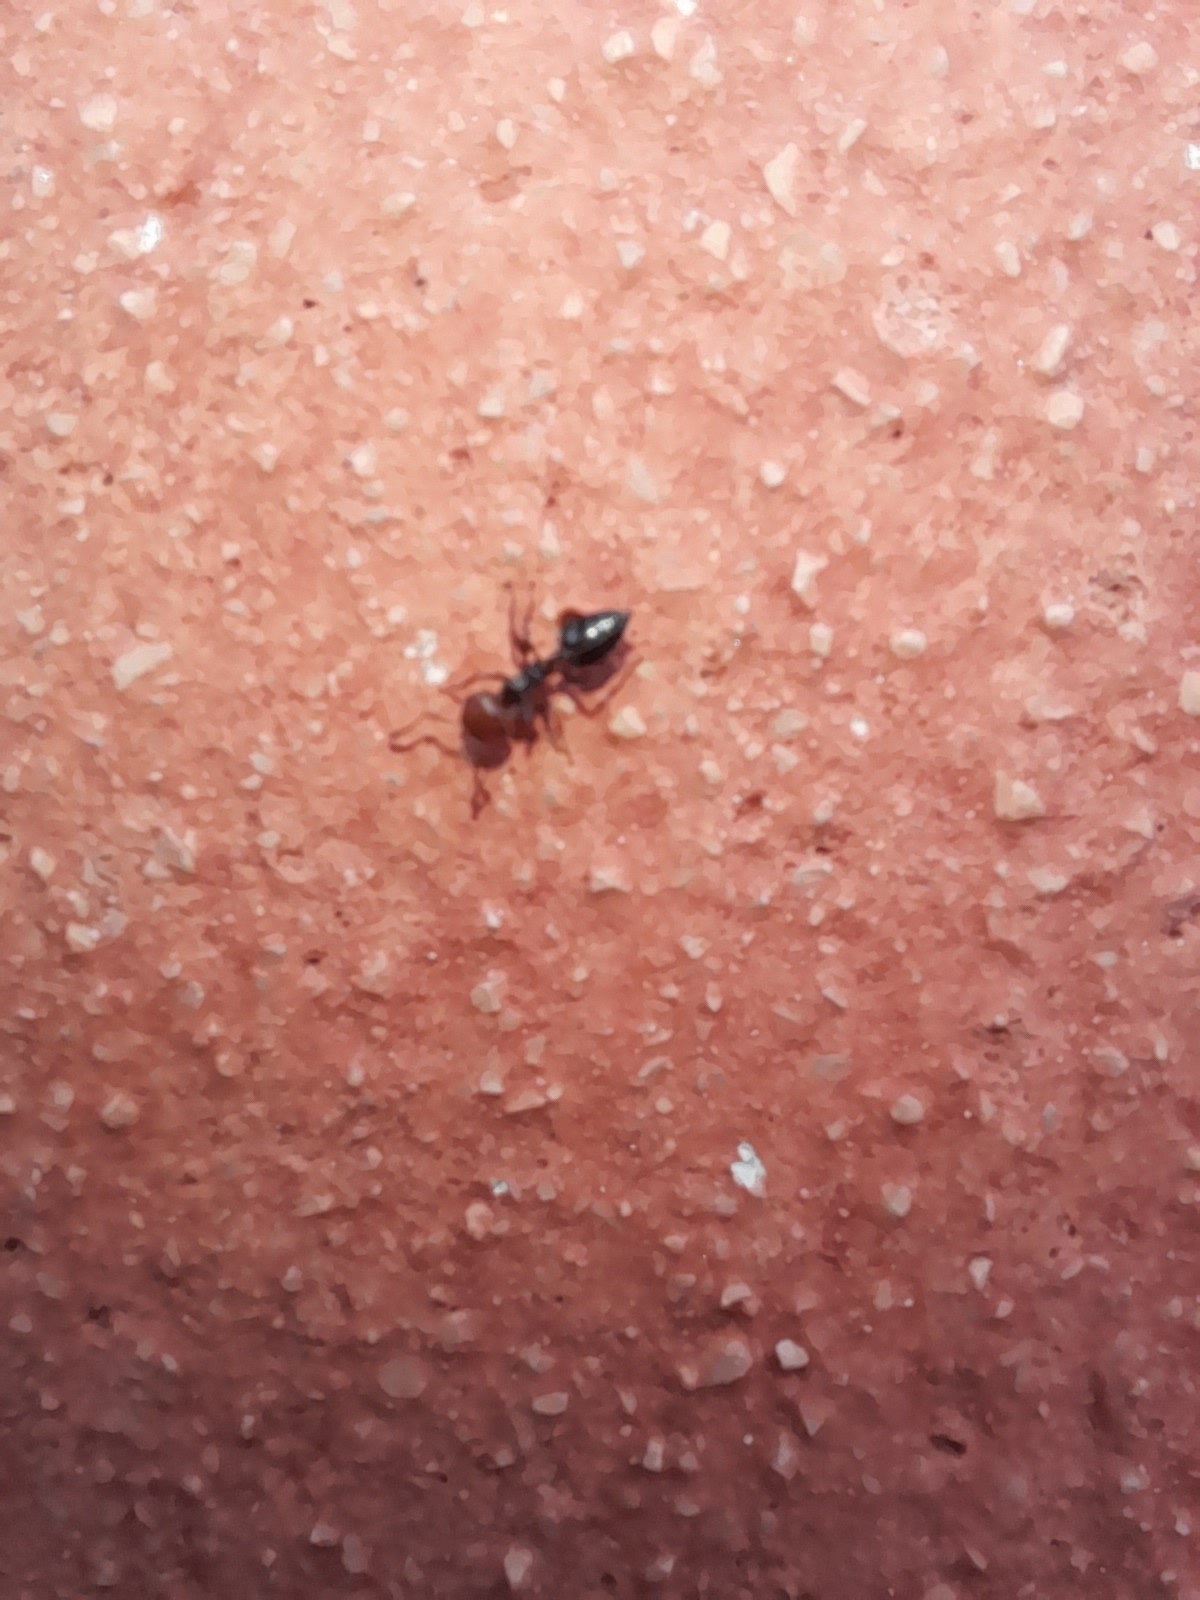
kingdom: Animalia
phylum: Arthropoda
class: Insecta
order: Hymenoptera
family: Formicidae
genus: Crematogaster
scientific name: Crematogaster scutellaris
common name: Fourmi du liège
